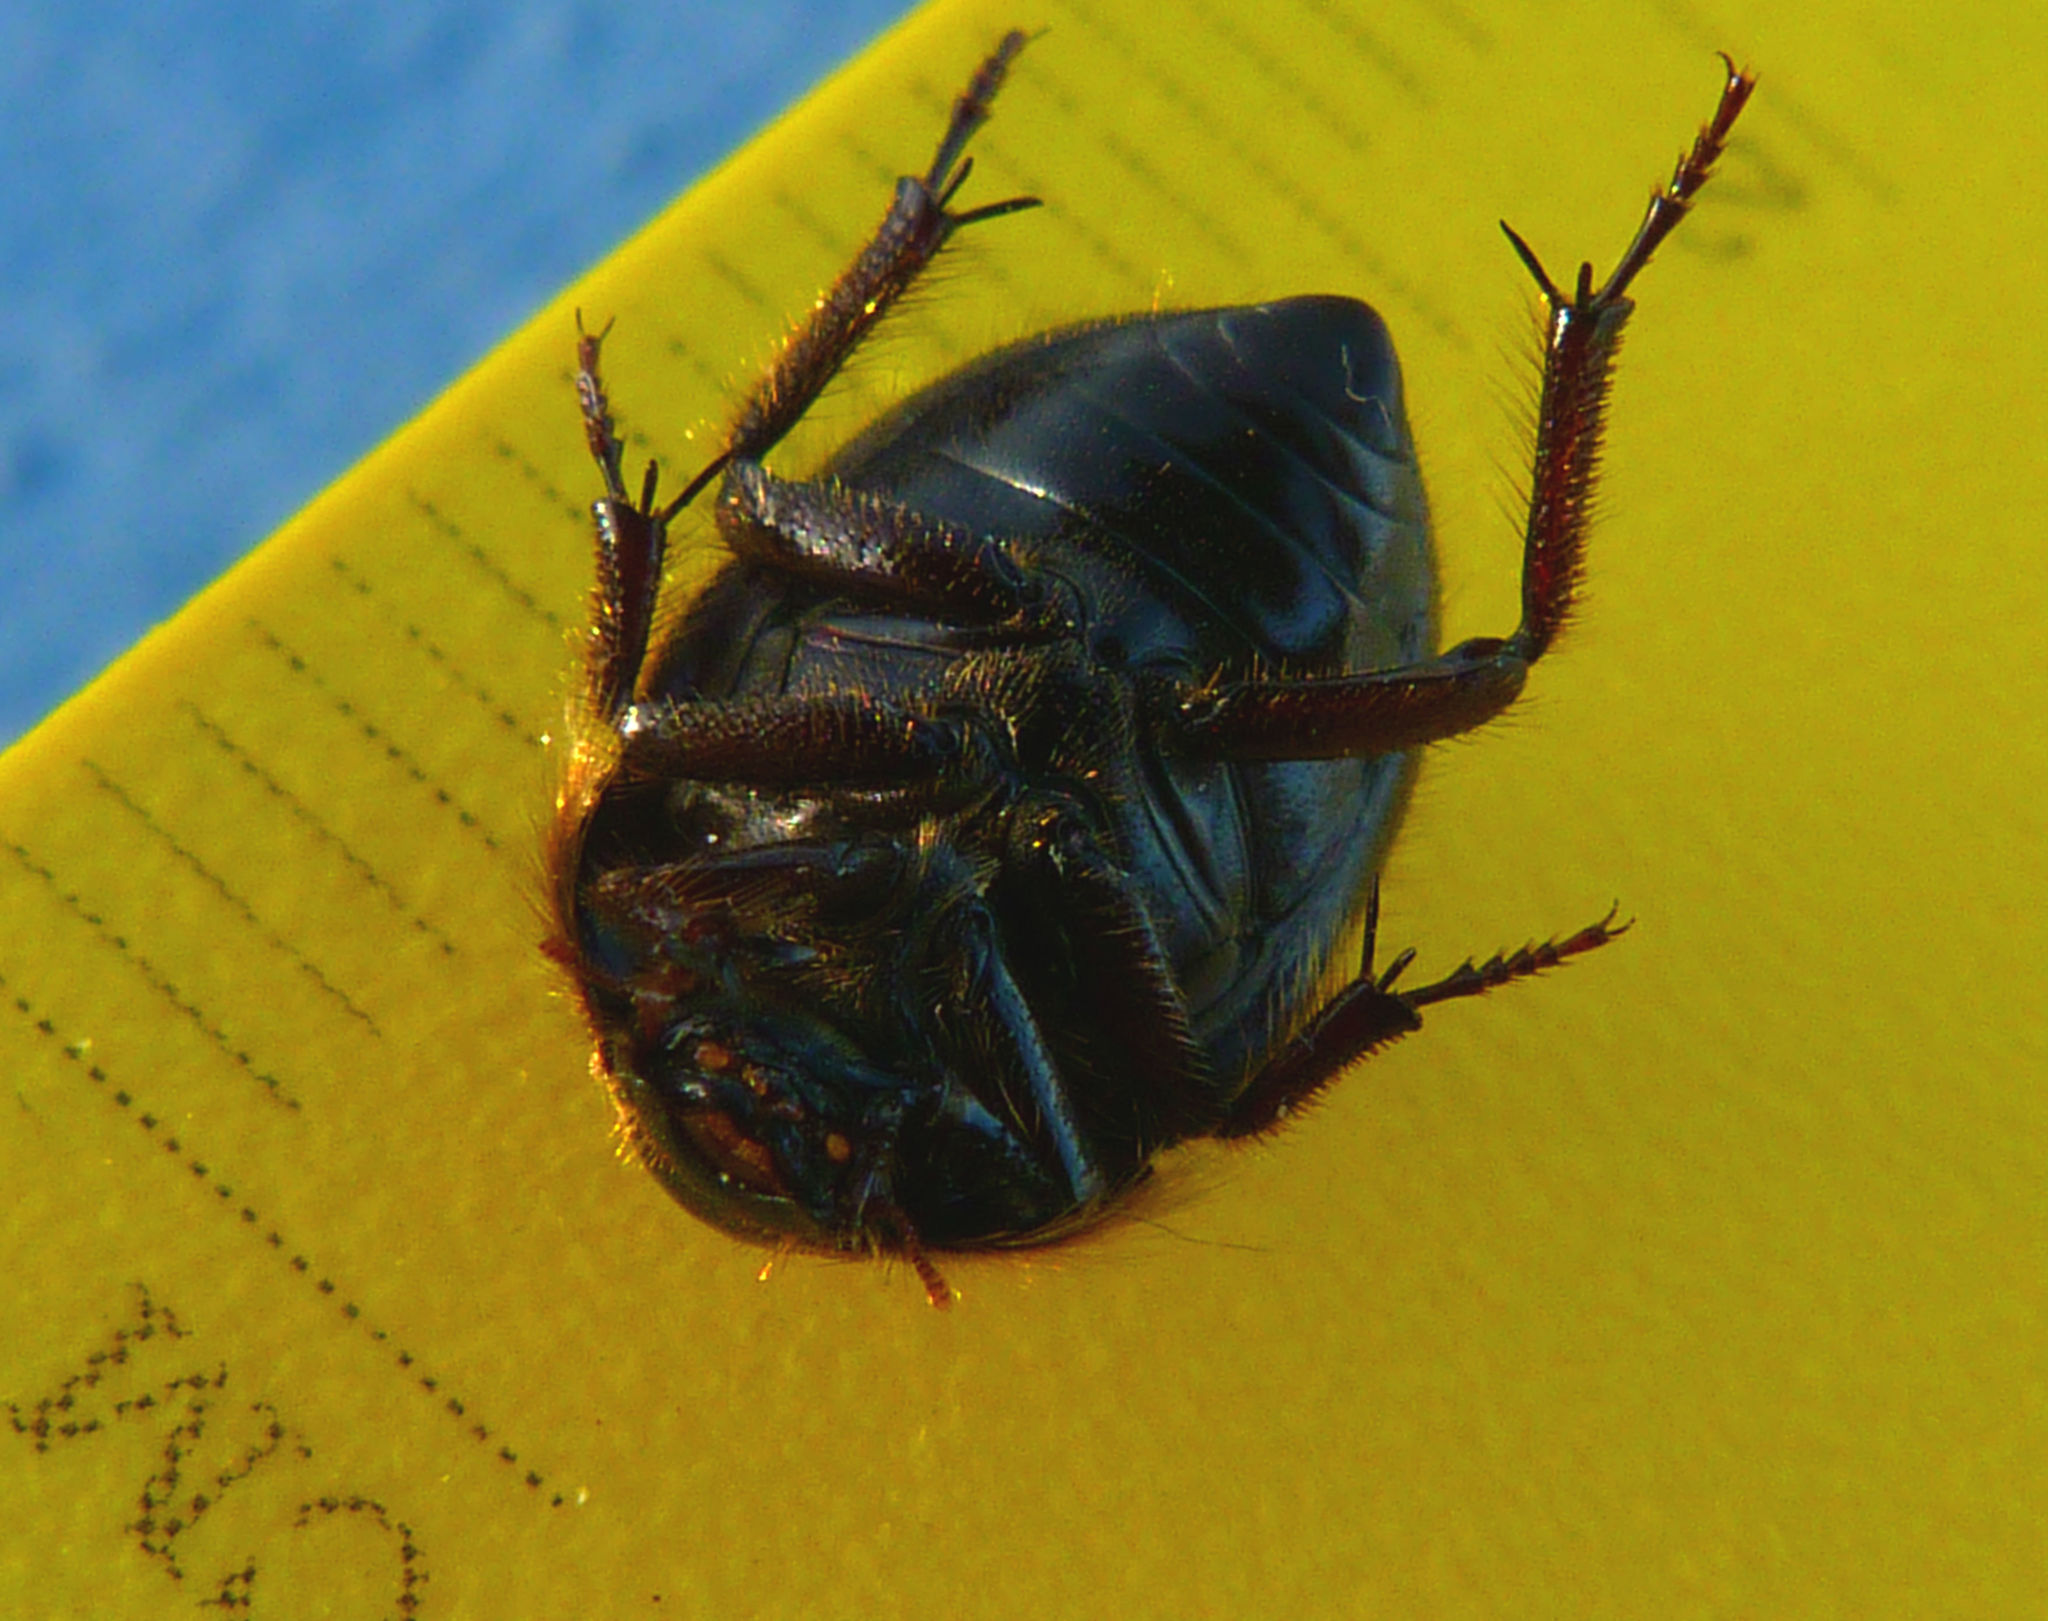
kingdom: Animalia
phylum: Arthropoda
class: Insecta
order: Coleoptera
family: Tenebrionidae
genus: Coelus
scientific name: Coelus globosus
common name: Globose dune beetle
